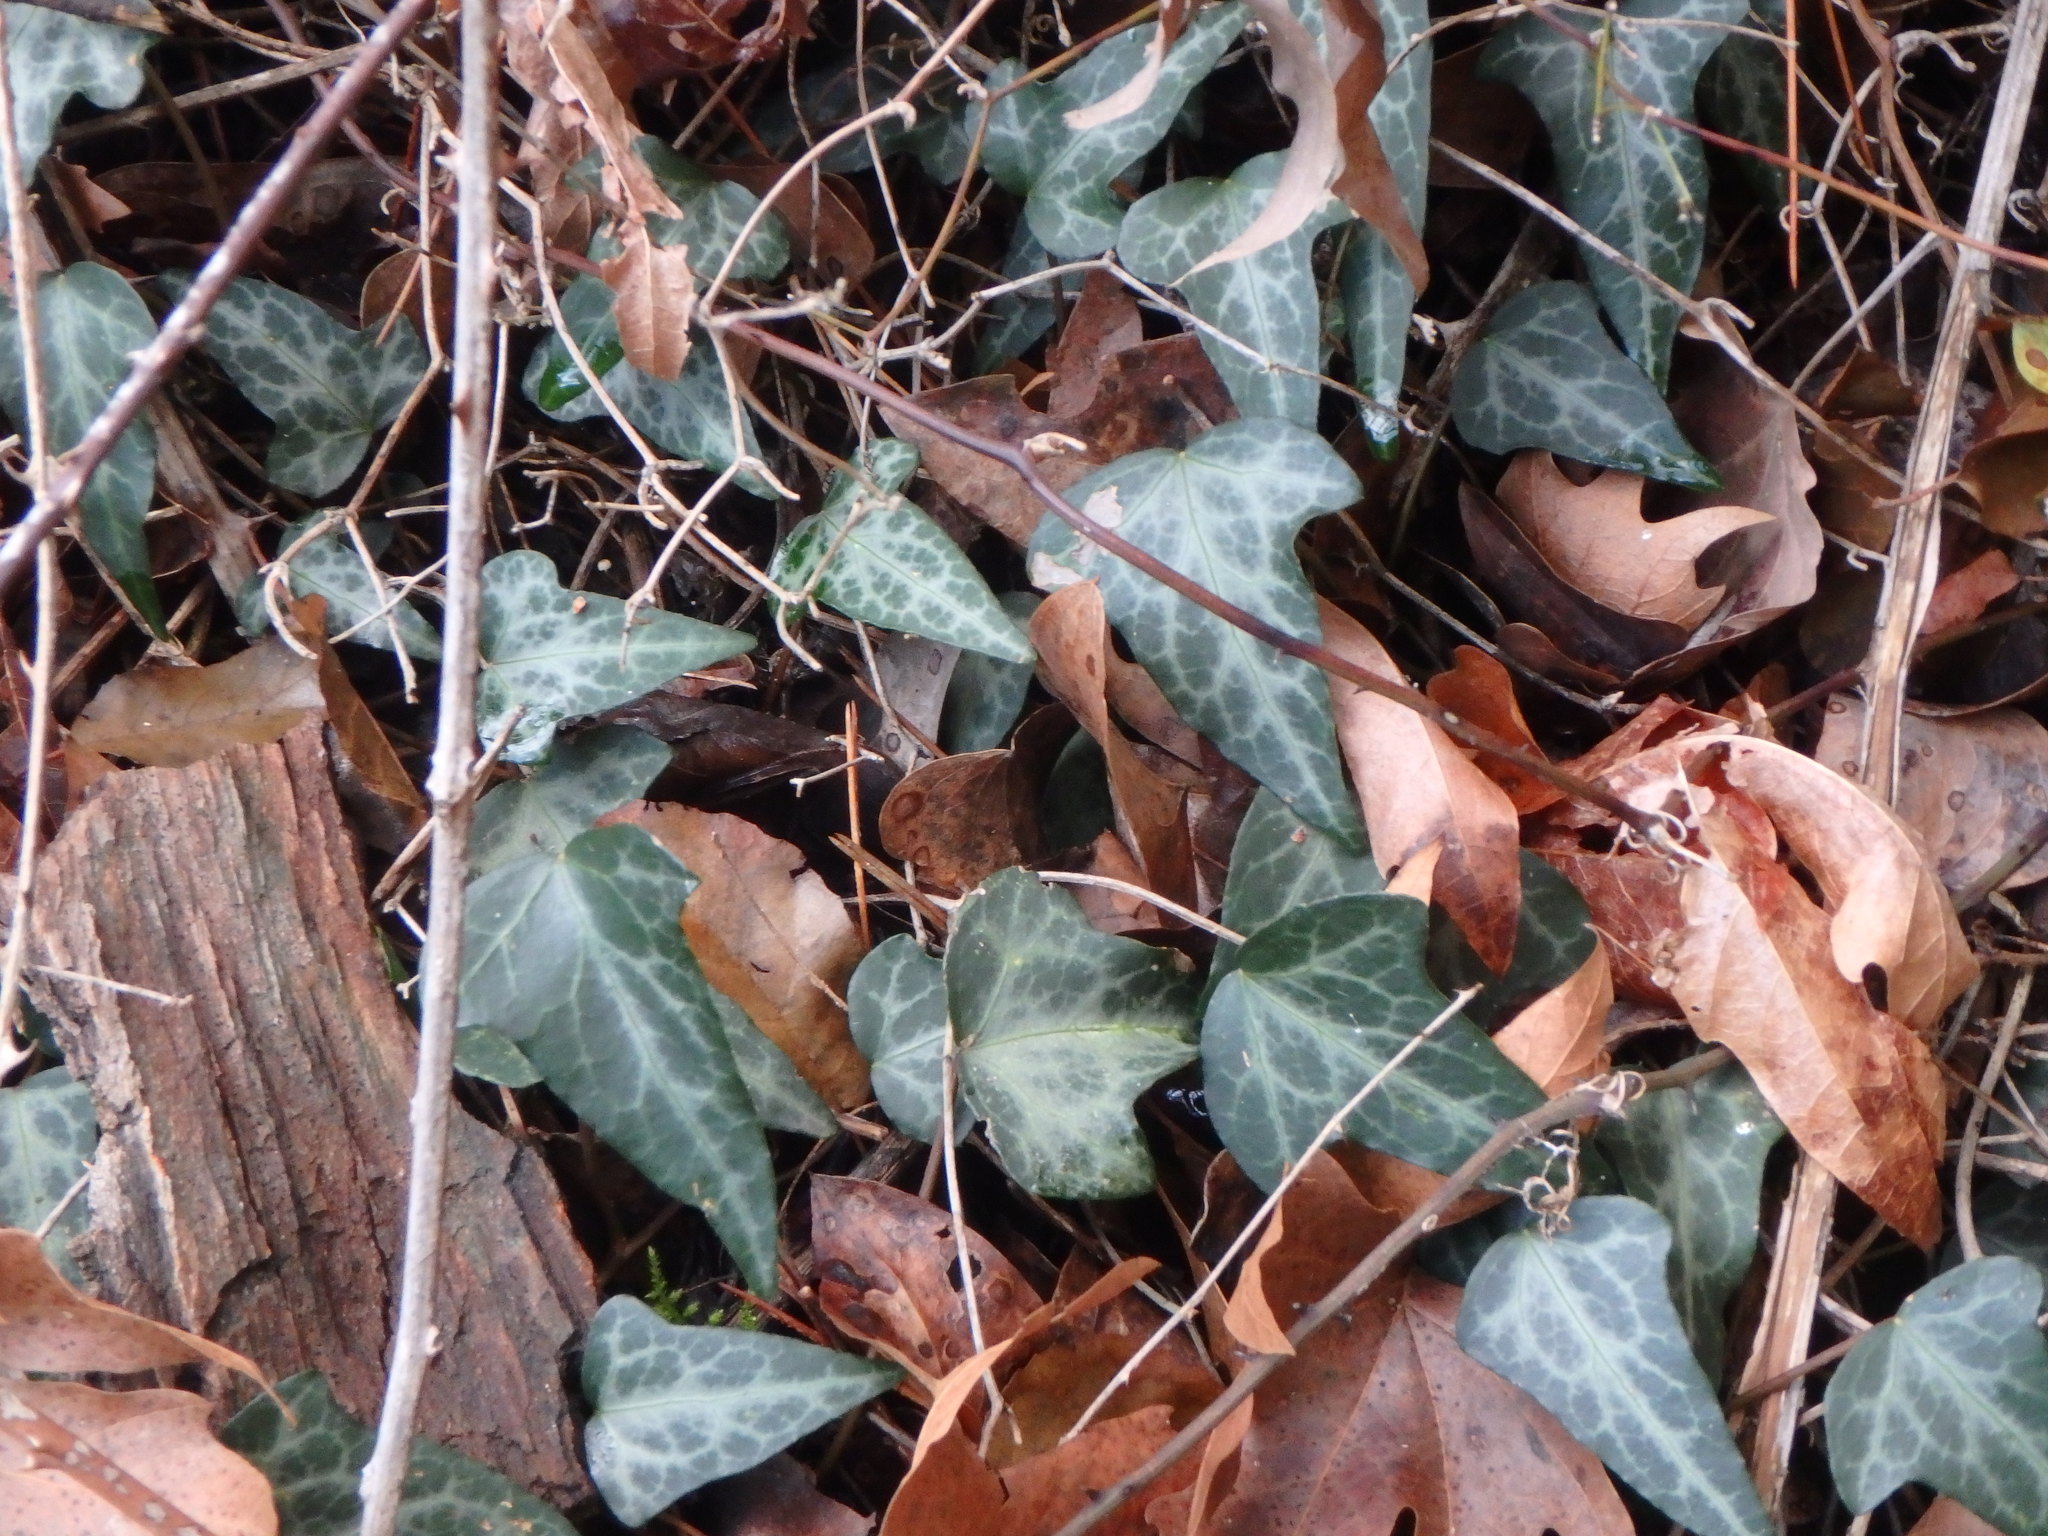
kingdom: Plantae
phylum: Tracheophyta
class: Magnoliopsida
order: Apiales
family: Araliaceae
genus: Hedera
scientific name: Hedera helix
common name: Ivy
